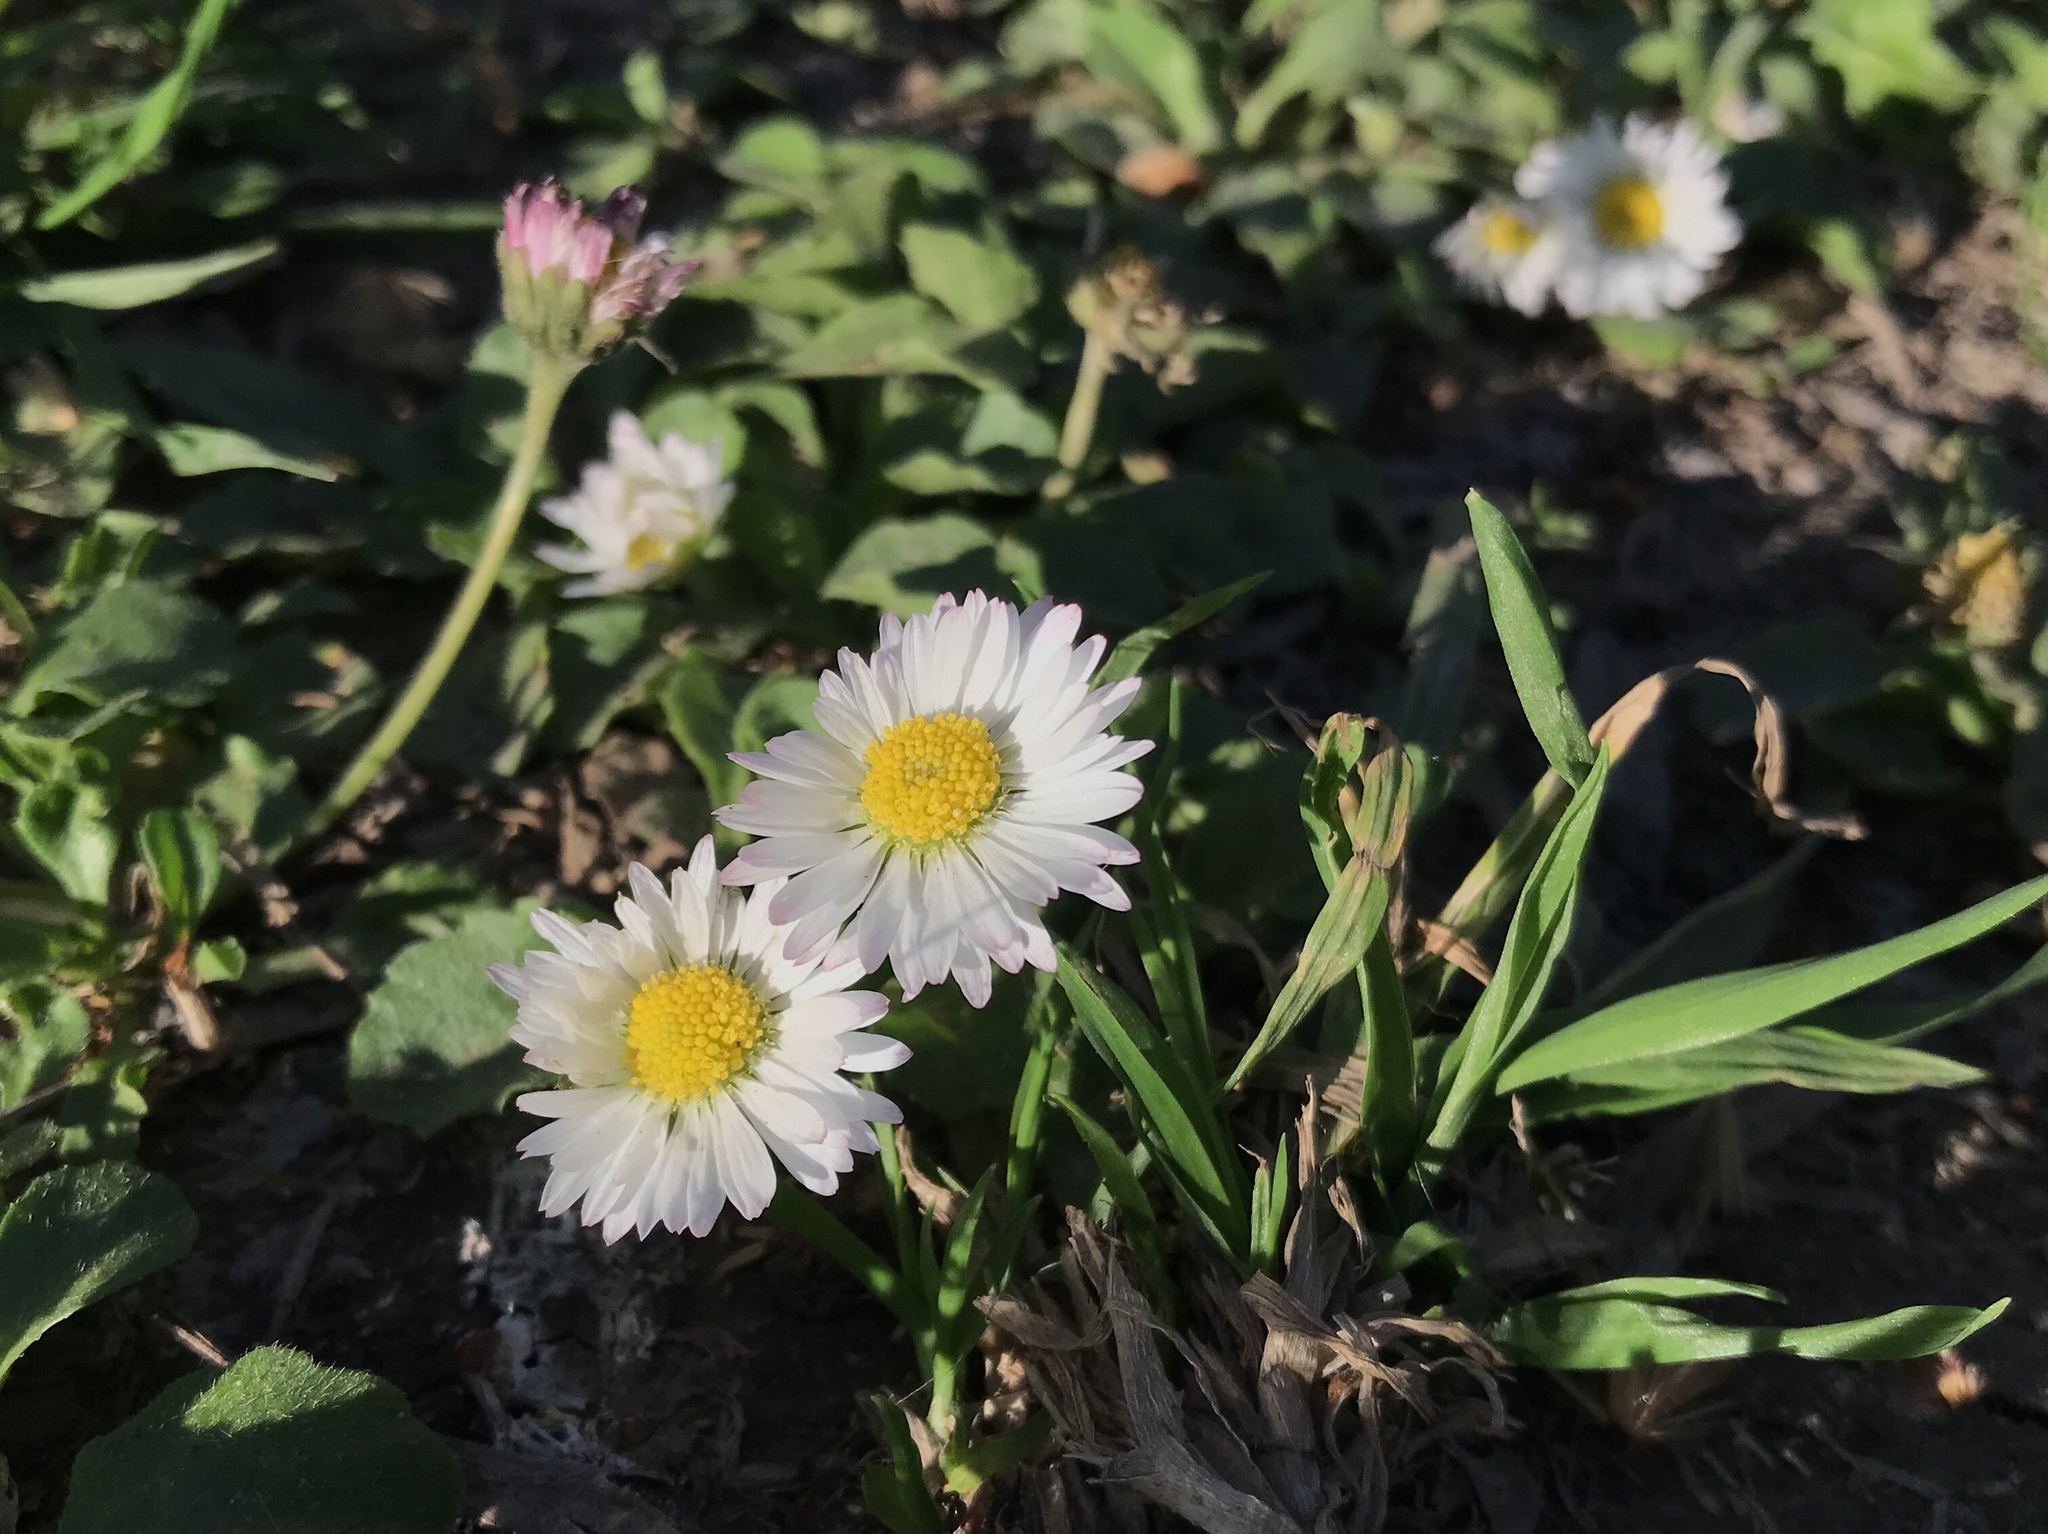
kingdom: Plantae
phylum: Tracheophyta
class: Magnoliopsida
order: Asterales
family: Asteraceae
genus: Bellis
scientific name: Bellis perennis
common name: Lawndaisy
